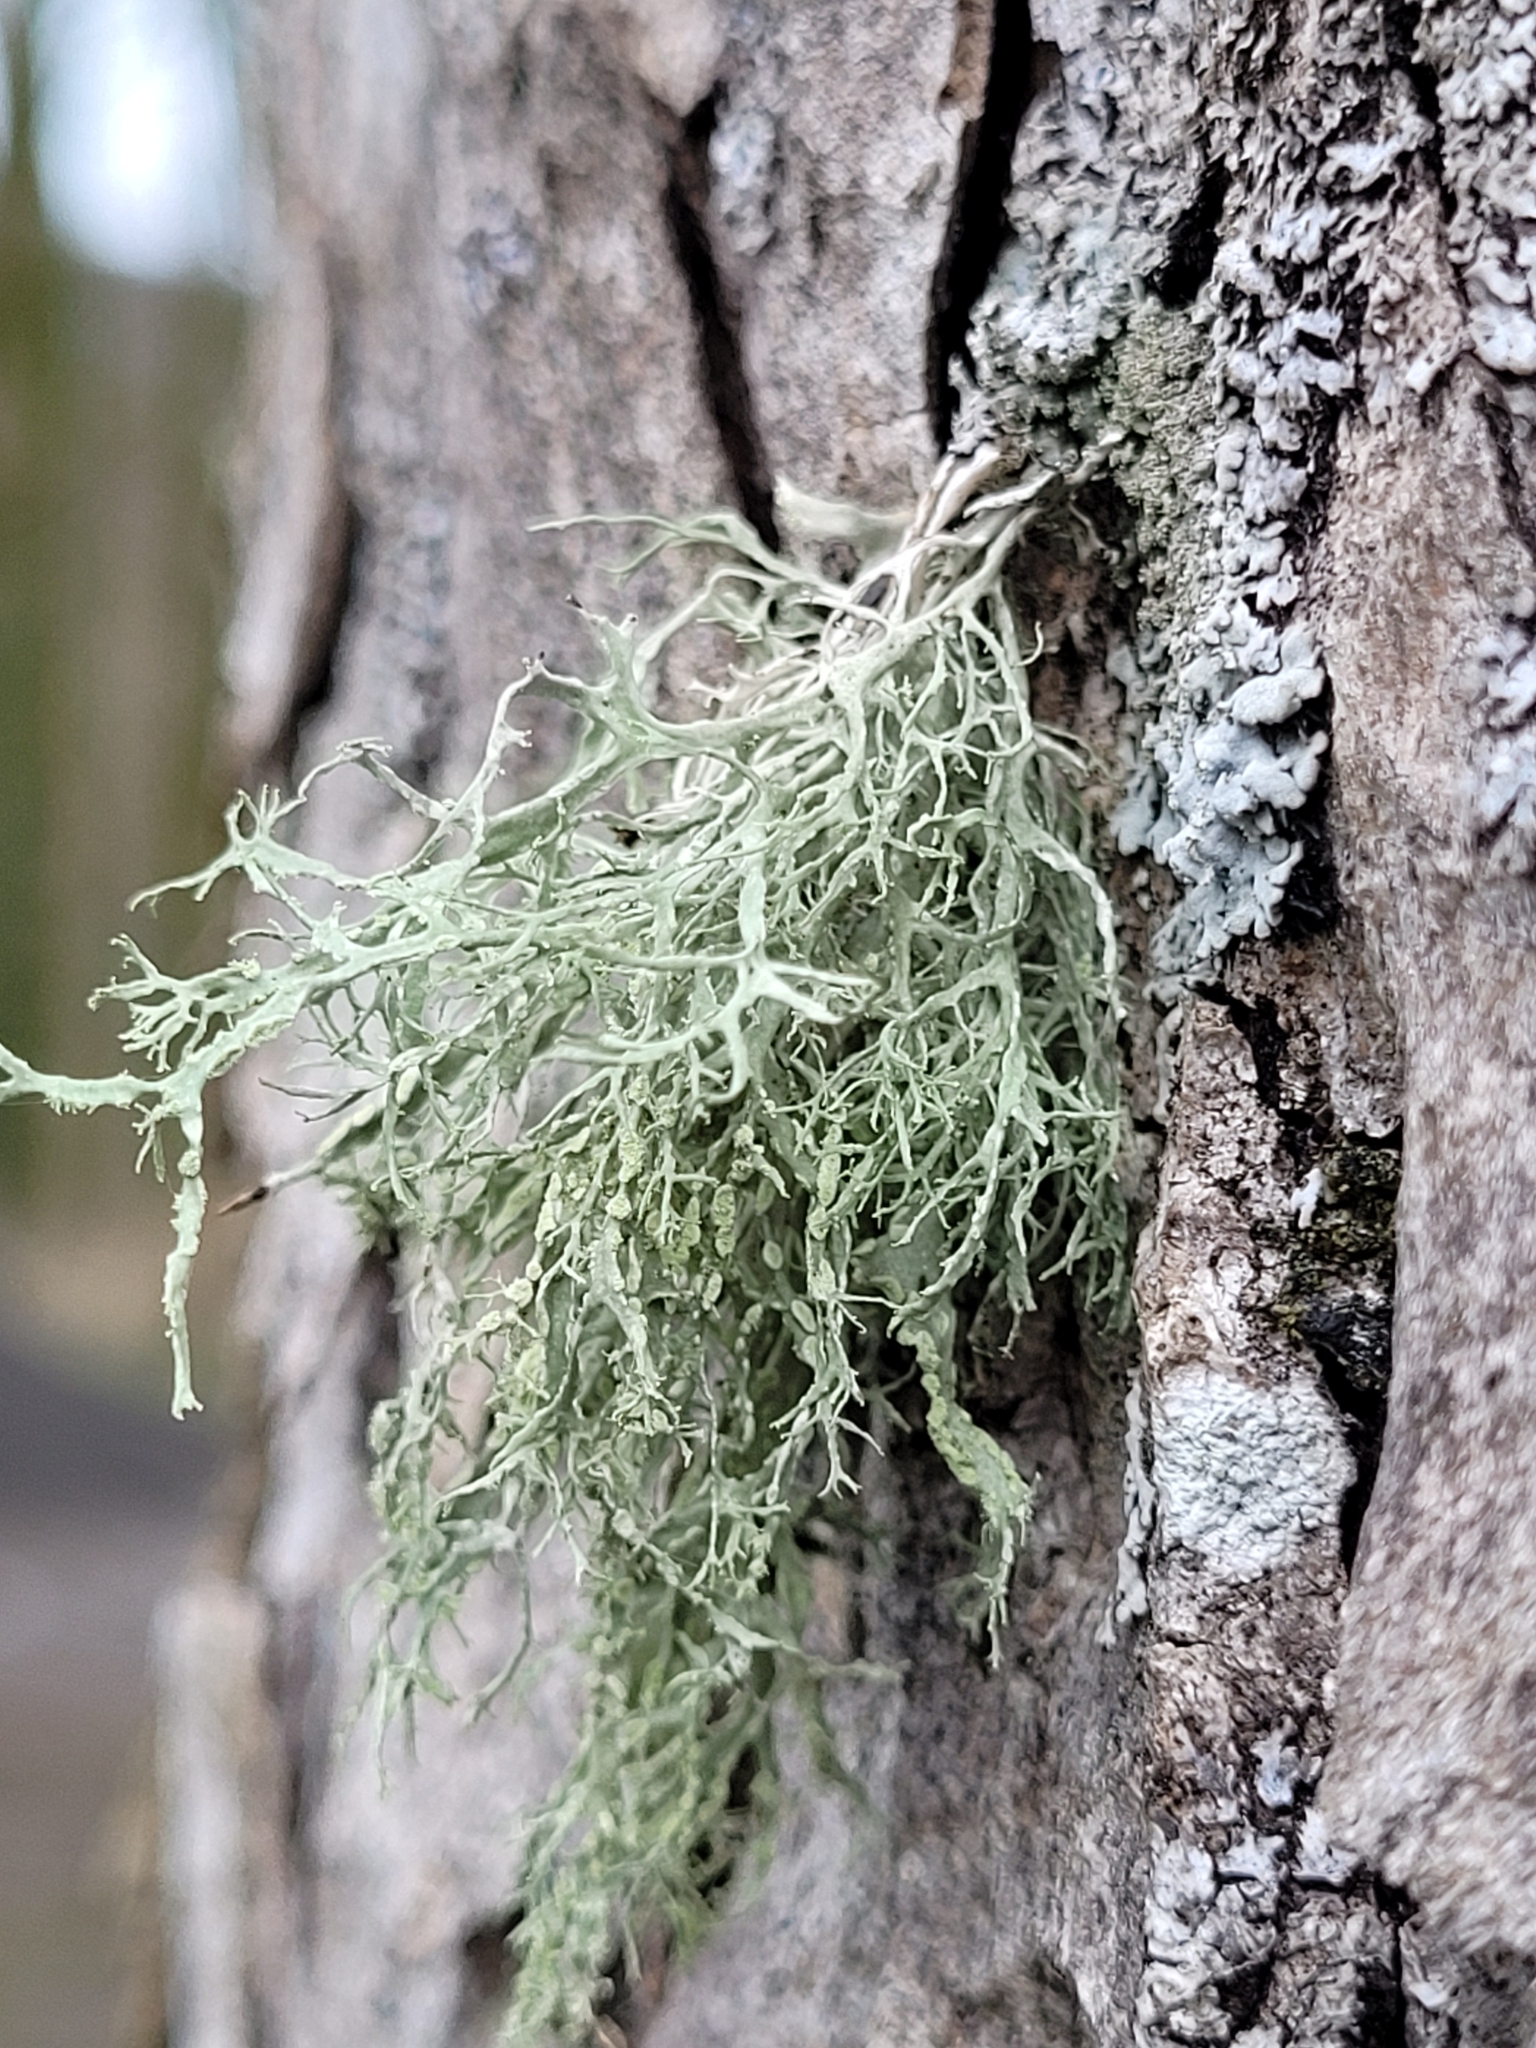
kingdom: Fungi
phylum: Ascomycota
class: Lecanoromycetes
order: Lecanorales
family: Ramalinaceae
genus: Ramalina
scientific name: Ramalina farinacea
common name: Farinose cartilage lichen
